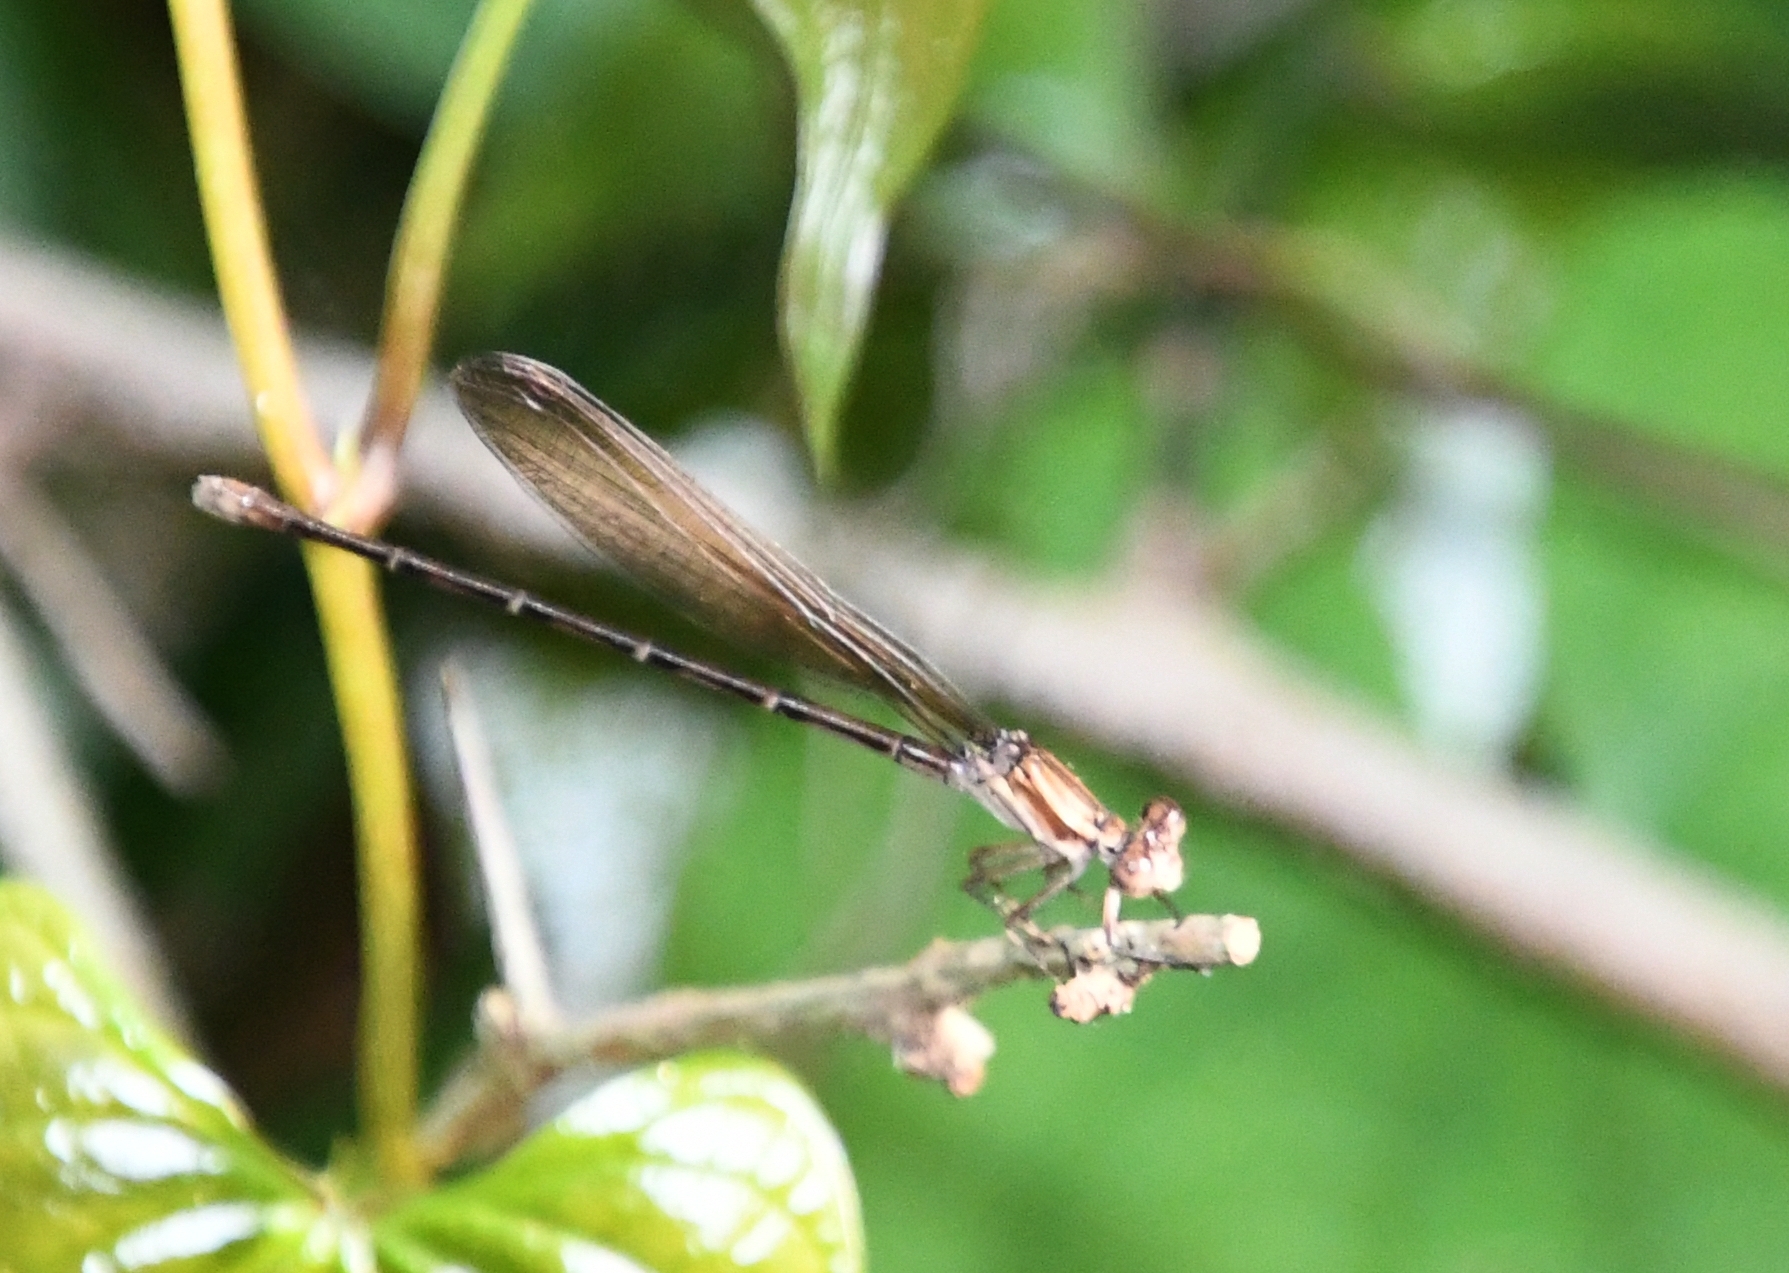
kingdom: Animalia
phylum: Arthropoda
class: Insecta
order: Odonata
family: Coenagrionidae
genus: Argia
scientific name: Argia sedula
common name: Blue-ringed dancer
